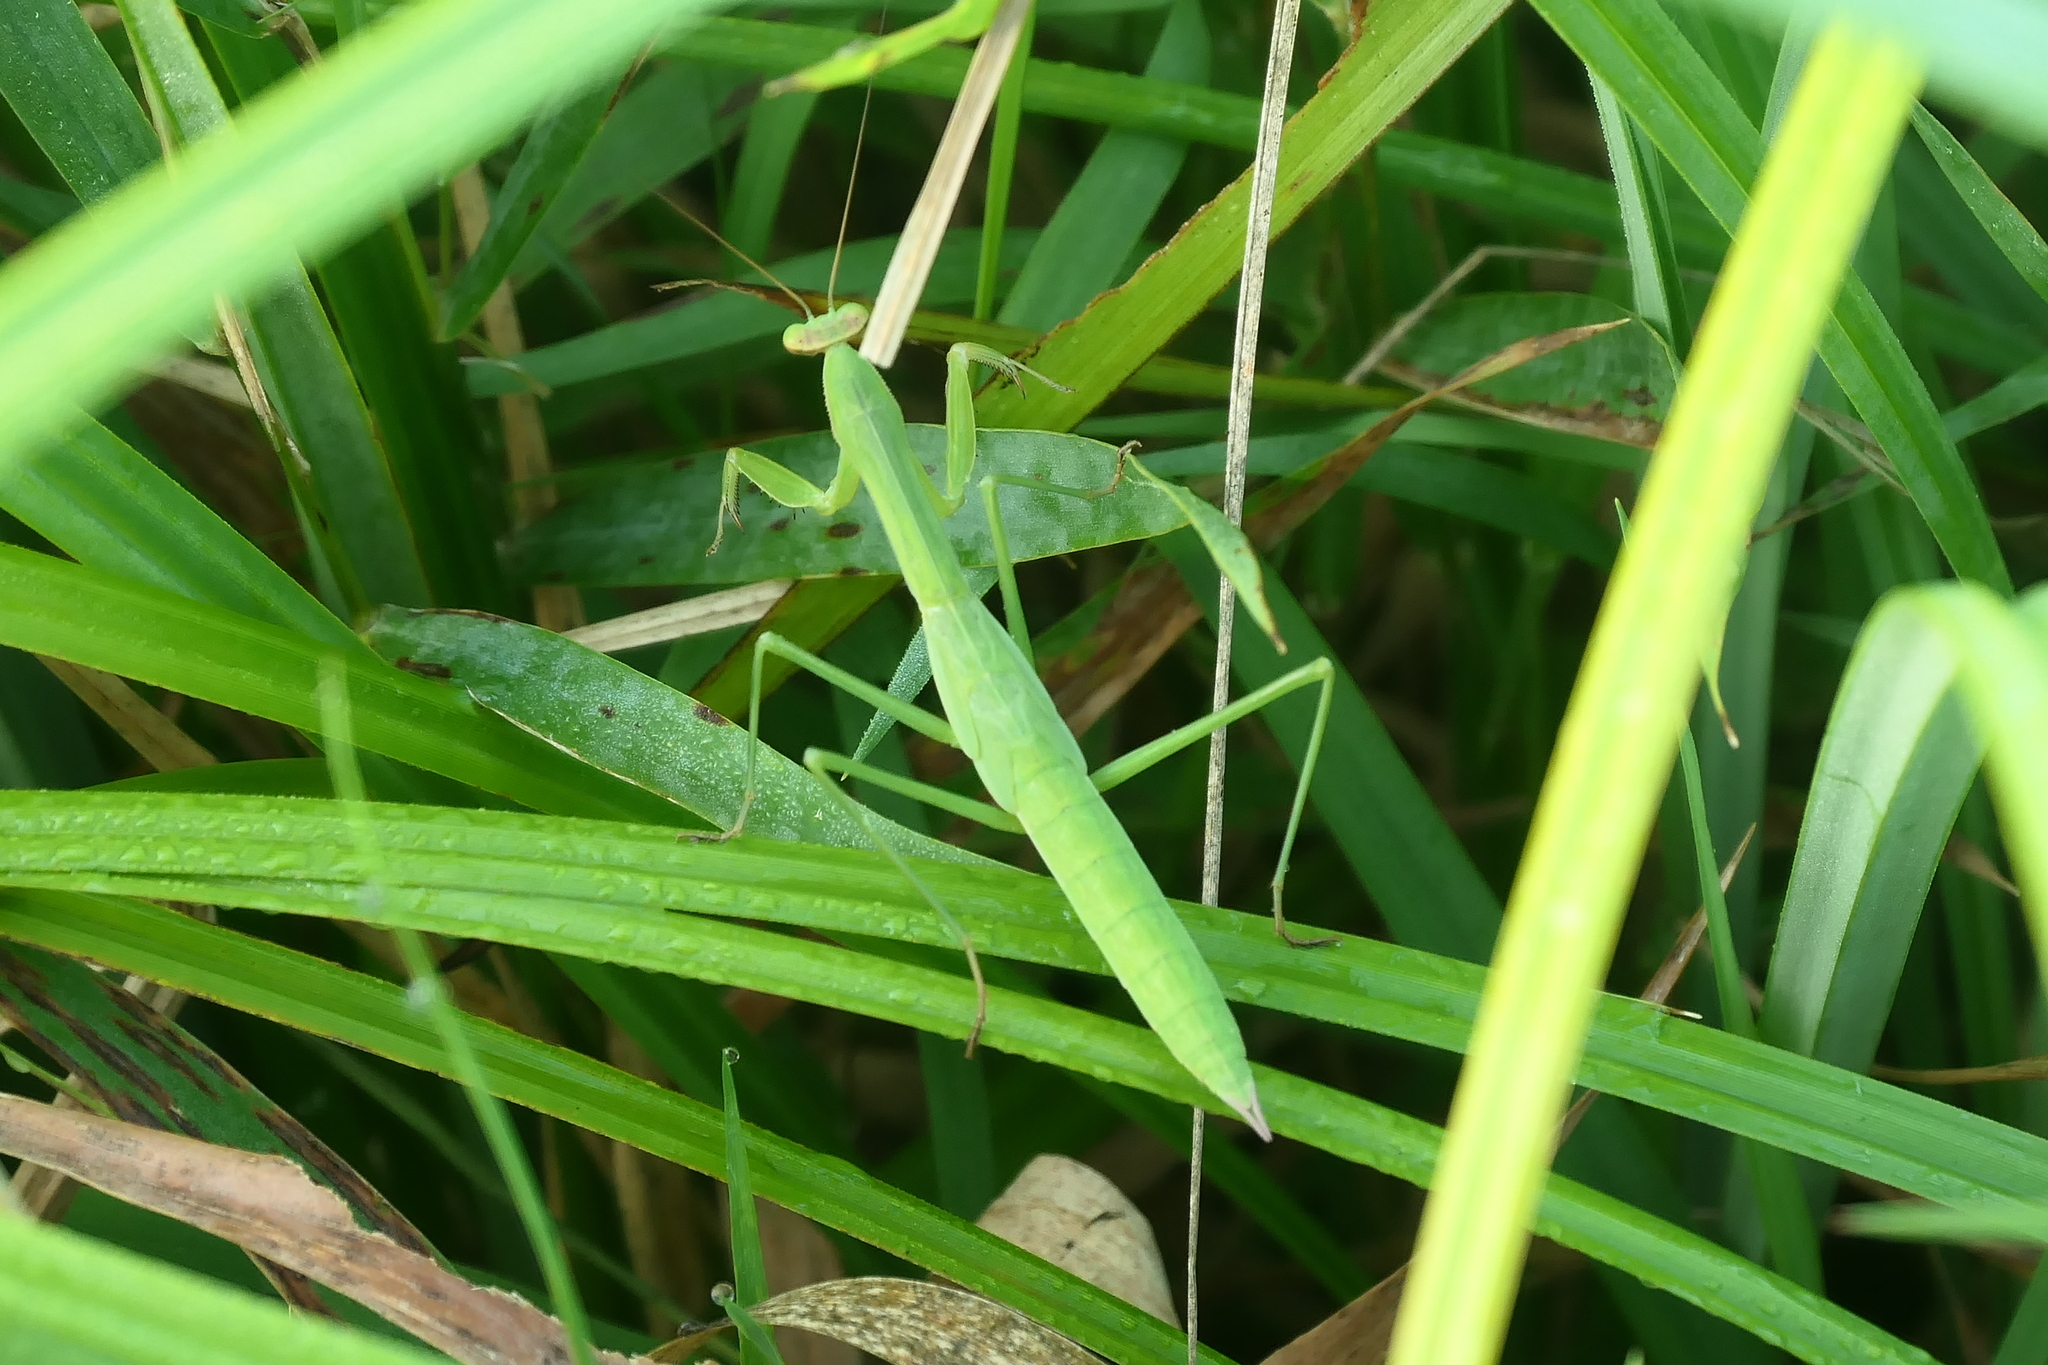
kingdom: Animalia
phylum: Arthropoda
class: Insecta
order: Mantodea
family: Mantidae
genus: Tenodera
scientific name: Tenodera sinensis
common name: Chinese mantis
